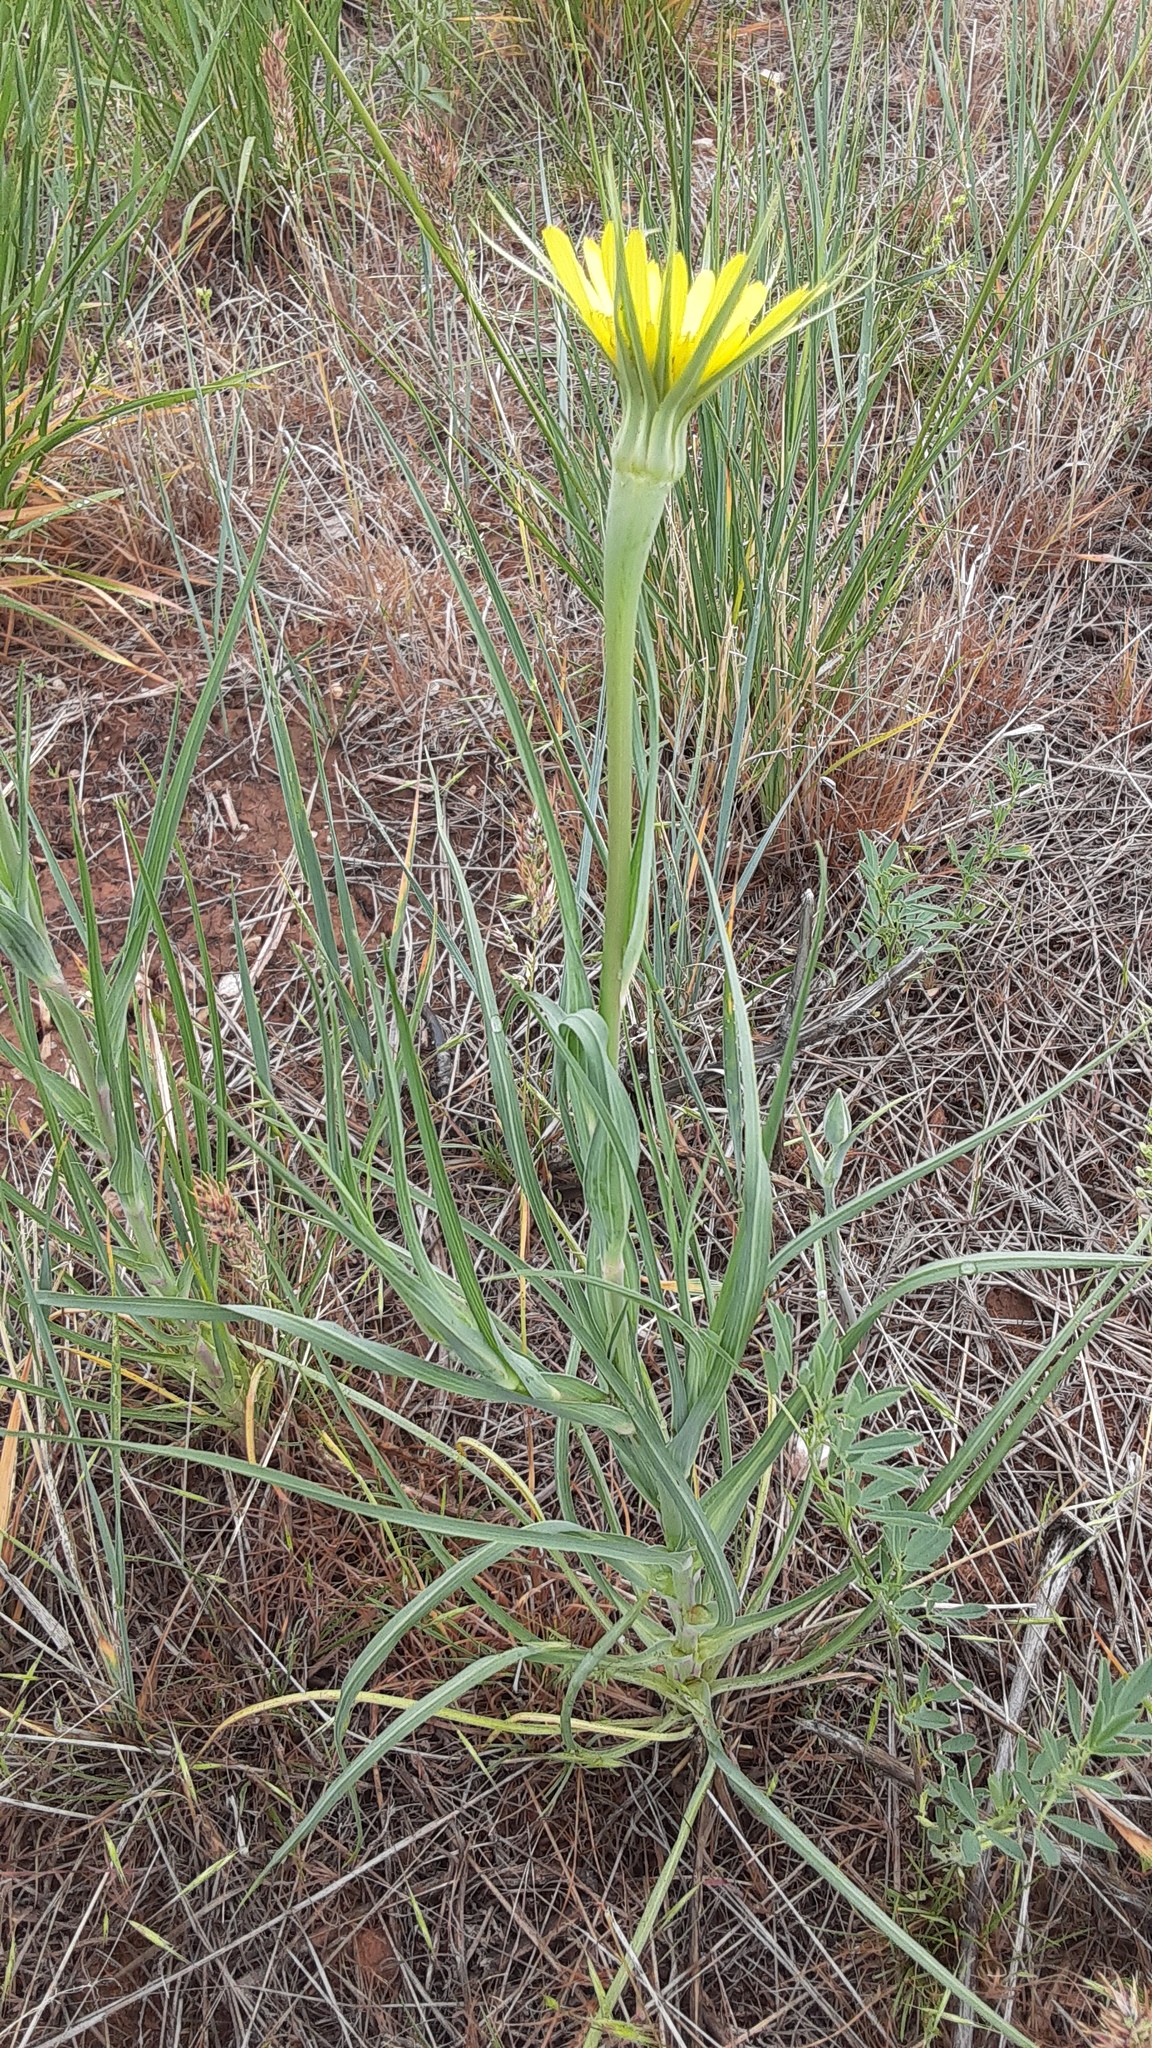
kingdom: Plantae
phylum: Tracheophyta
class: Magnoliopsida
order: Asterales
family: Asteraceae
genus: Tragopogon
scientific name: Tragopogon dubius
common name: Yellow salsify
